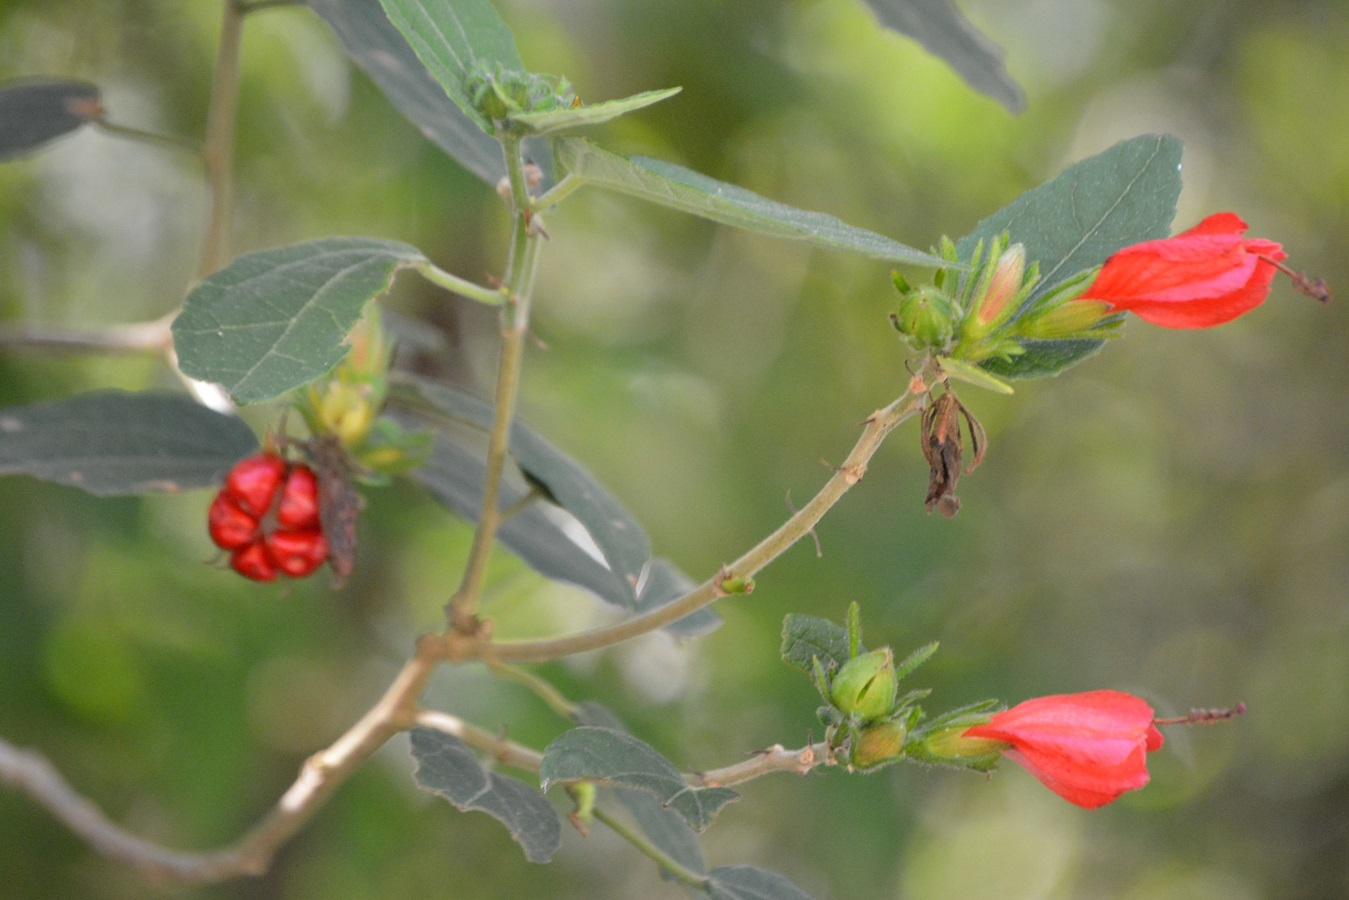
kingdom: Plantae
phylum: Tracheophyta
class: Magnoliopsida
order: Malvales
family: Malvaceae
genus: Malvaviscus
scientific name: Malvaviscus arboreus
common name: Wax mallow
